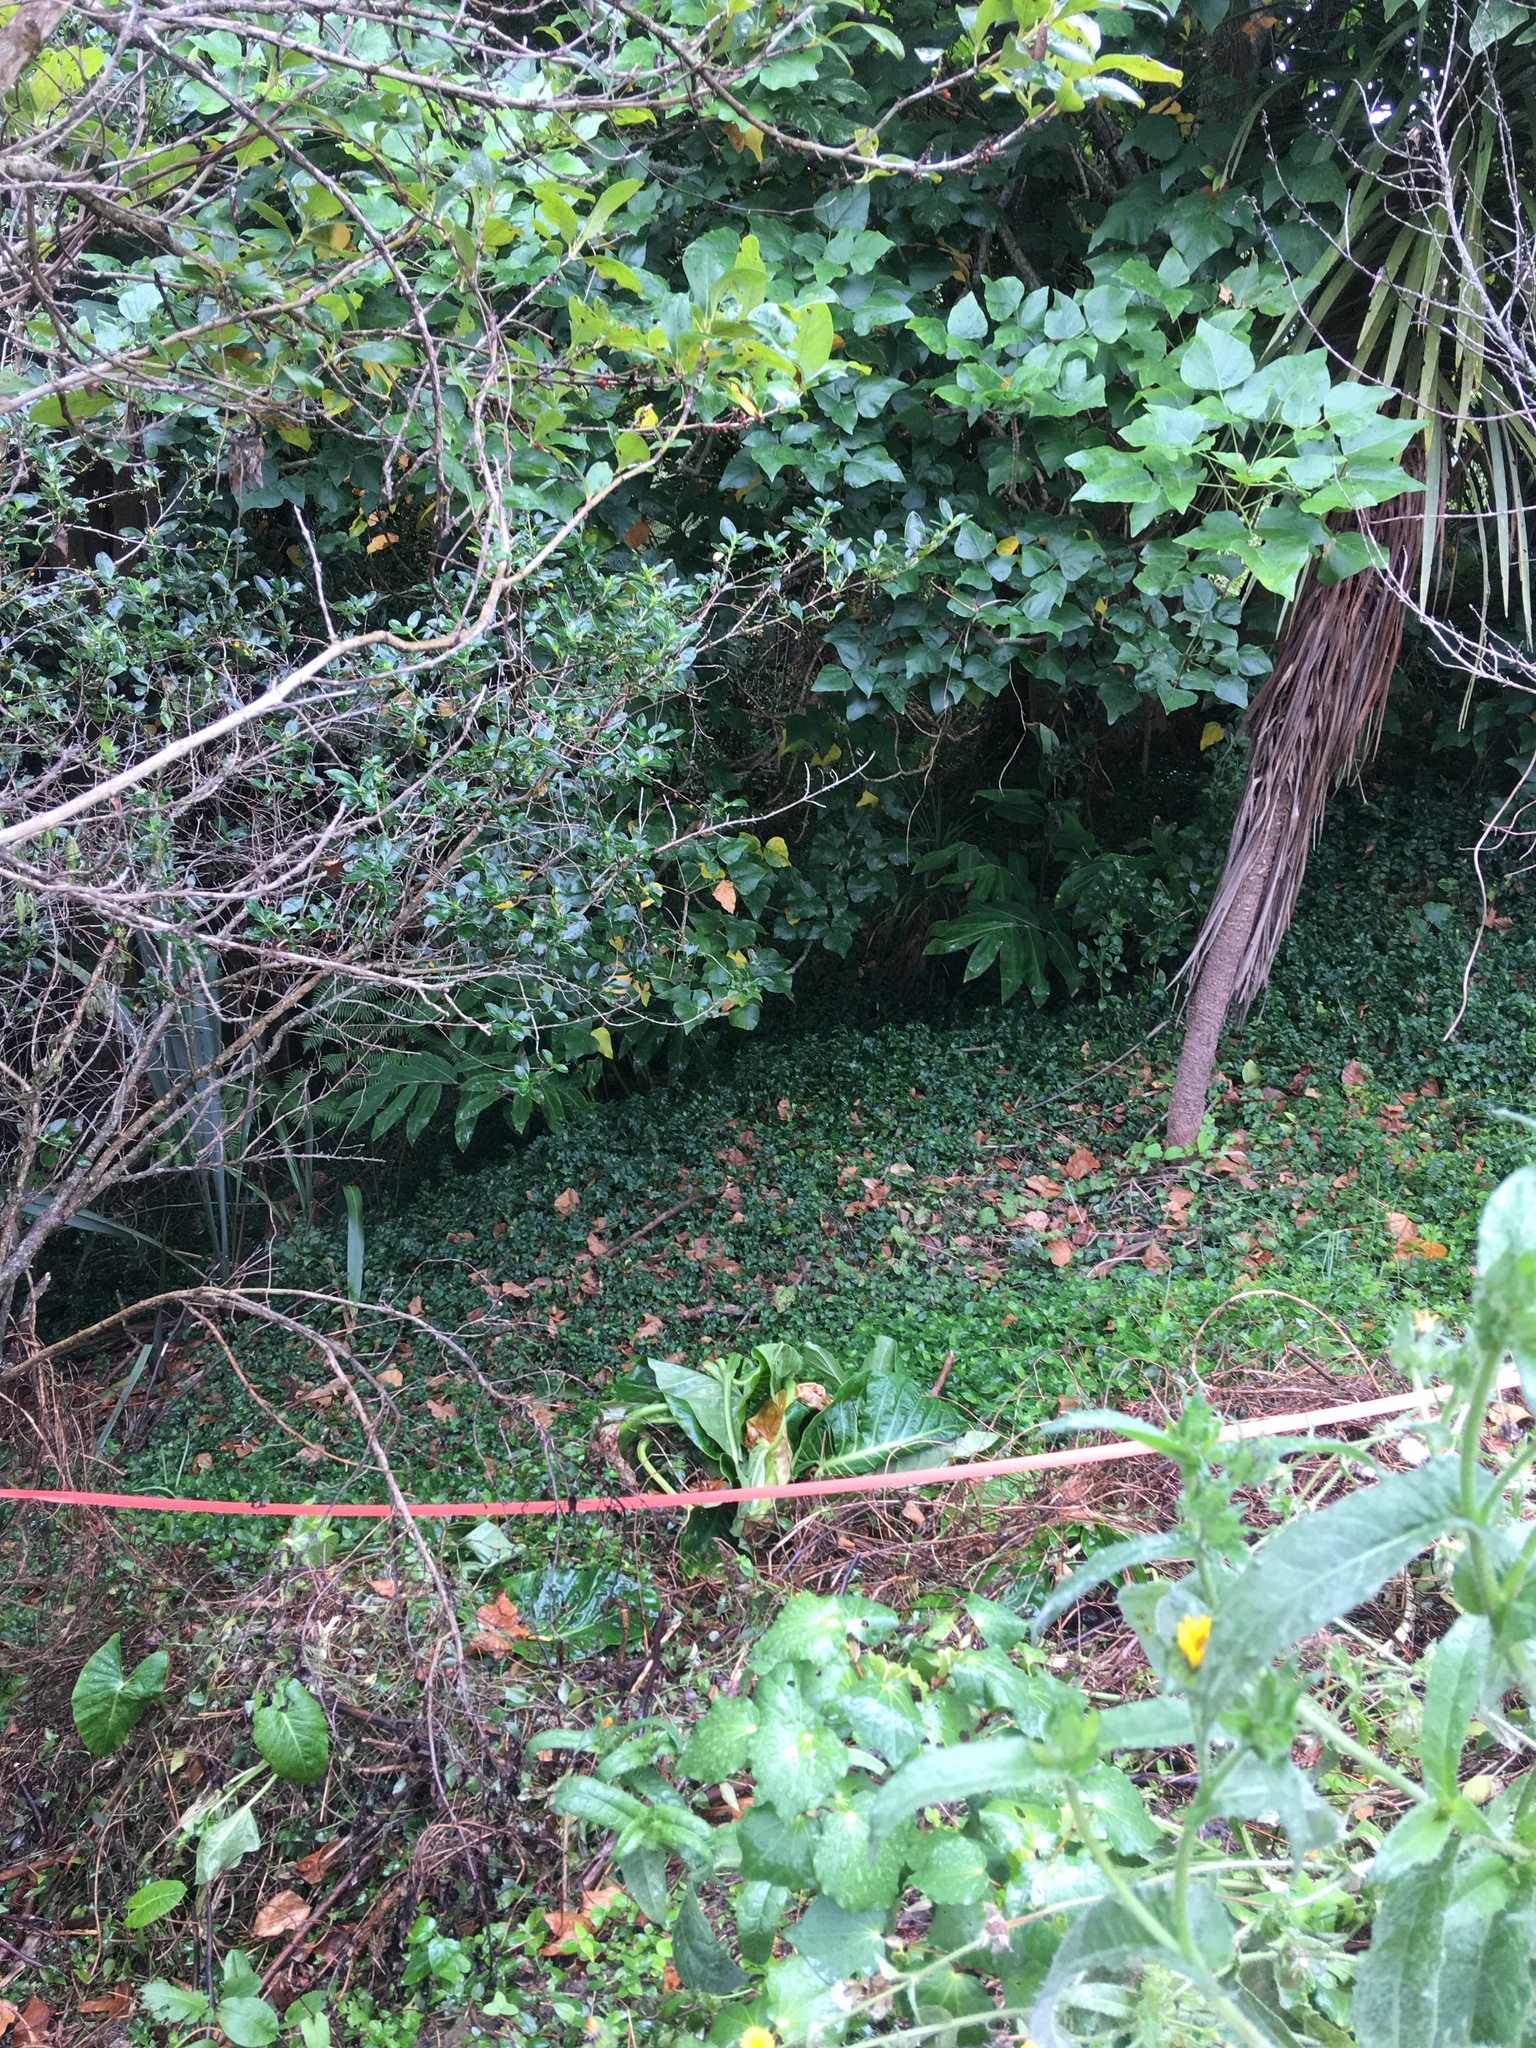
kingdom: Plantae
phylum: Tracheophyta
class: Liliopsida
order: Commelinales
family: Commelinaceae
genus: Tradescantia
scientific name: Tradescantia fluminensis
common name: Wandering-jew
